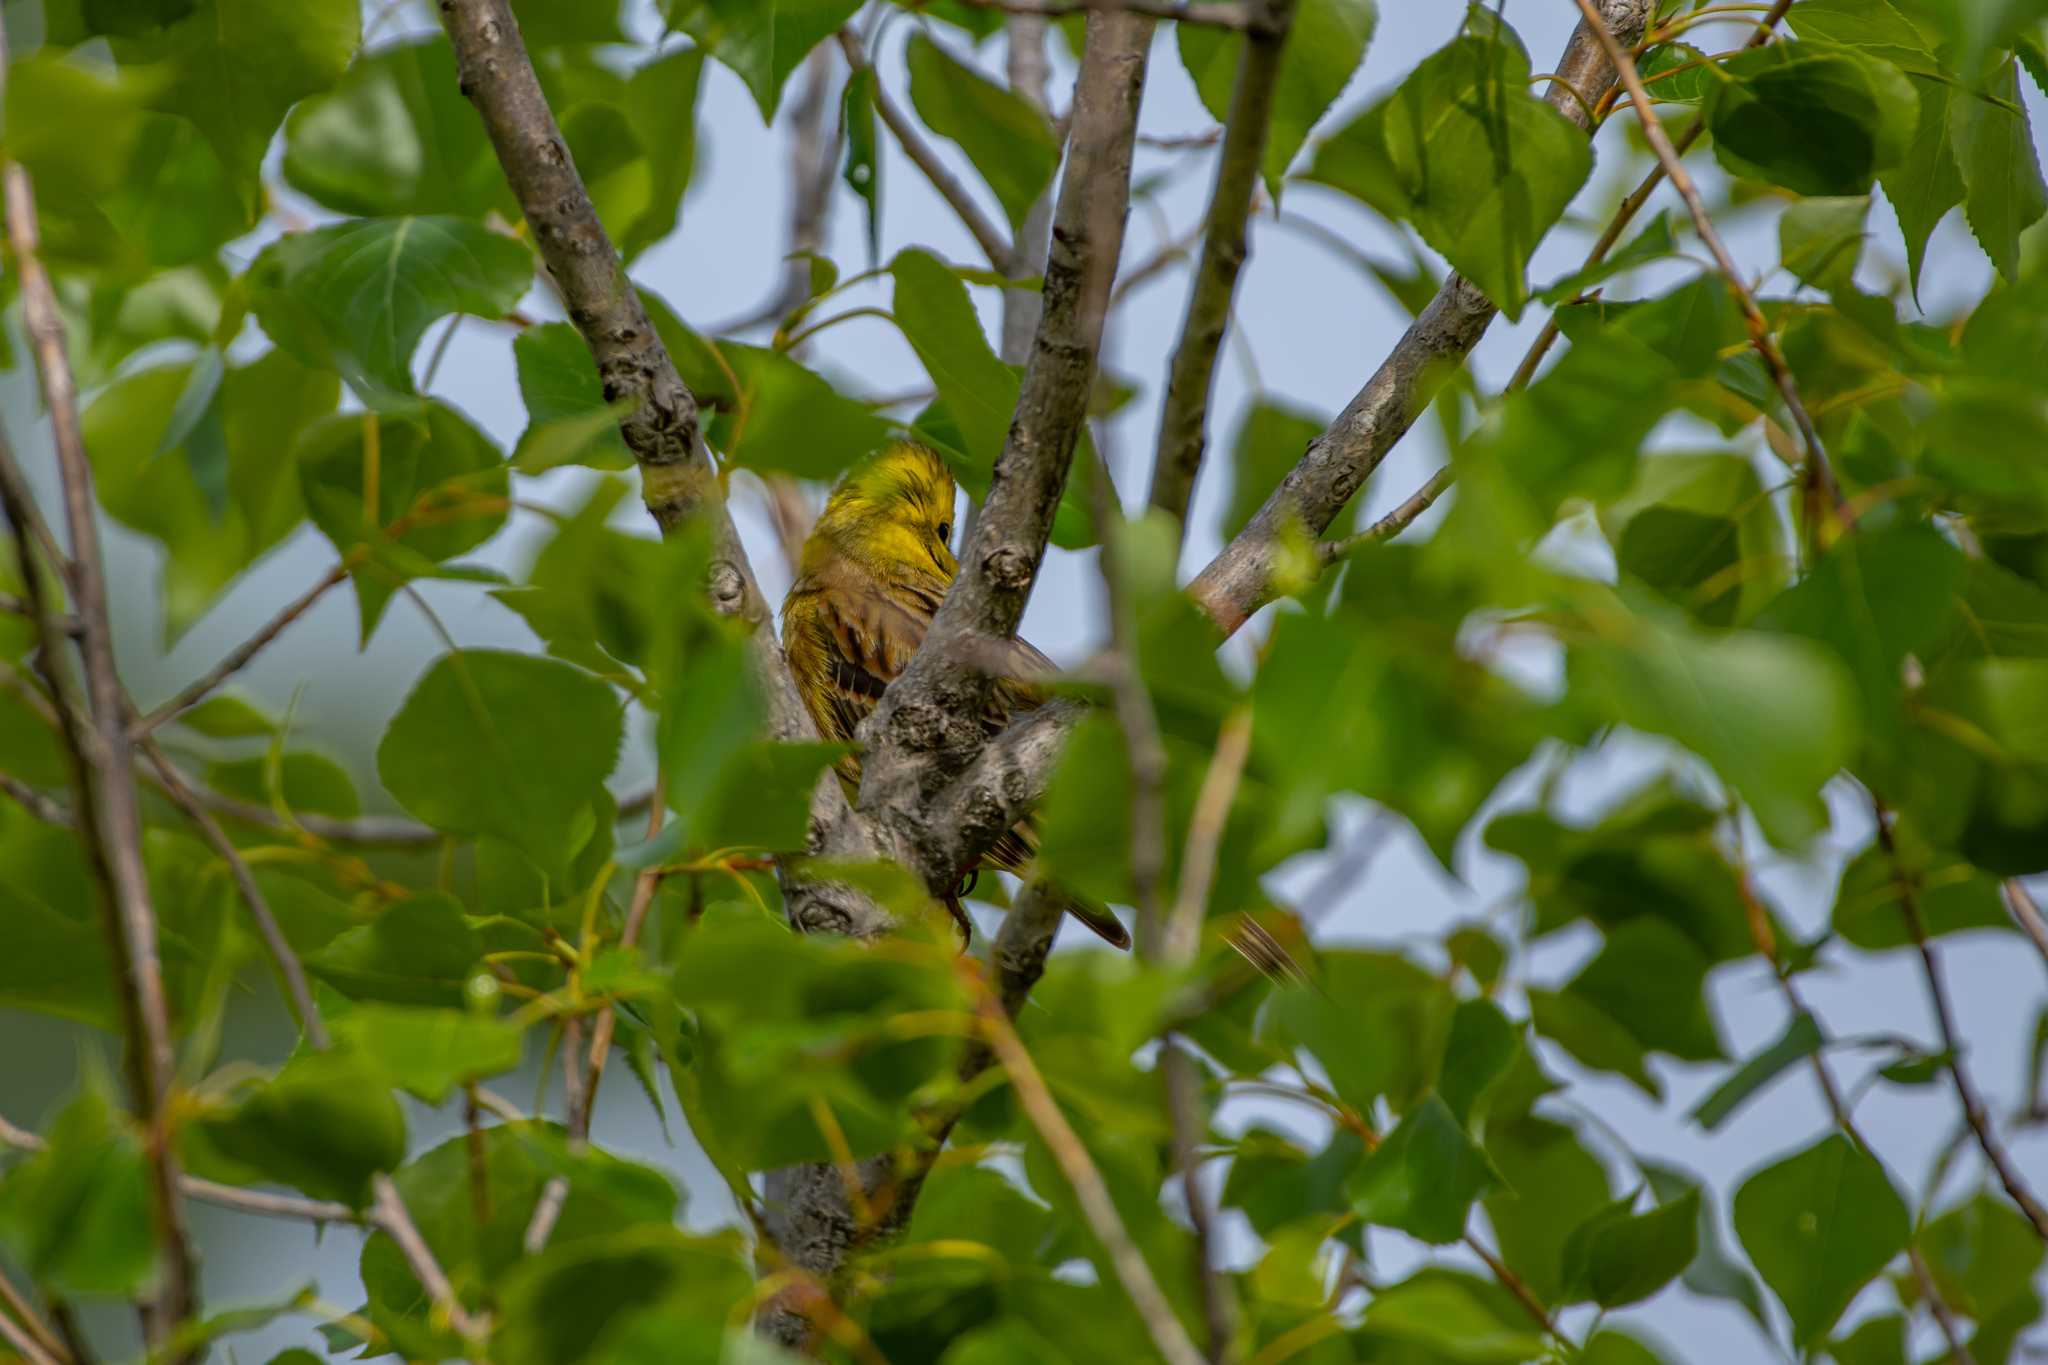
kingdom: Animalia
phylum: Chordata
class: Aves
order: Passeriformes
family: Emberizidae
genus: Emberiza
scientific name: Emberiza citrinella
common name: Yellowhammer
